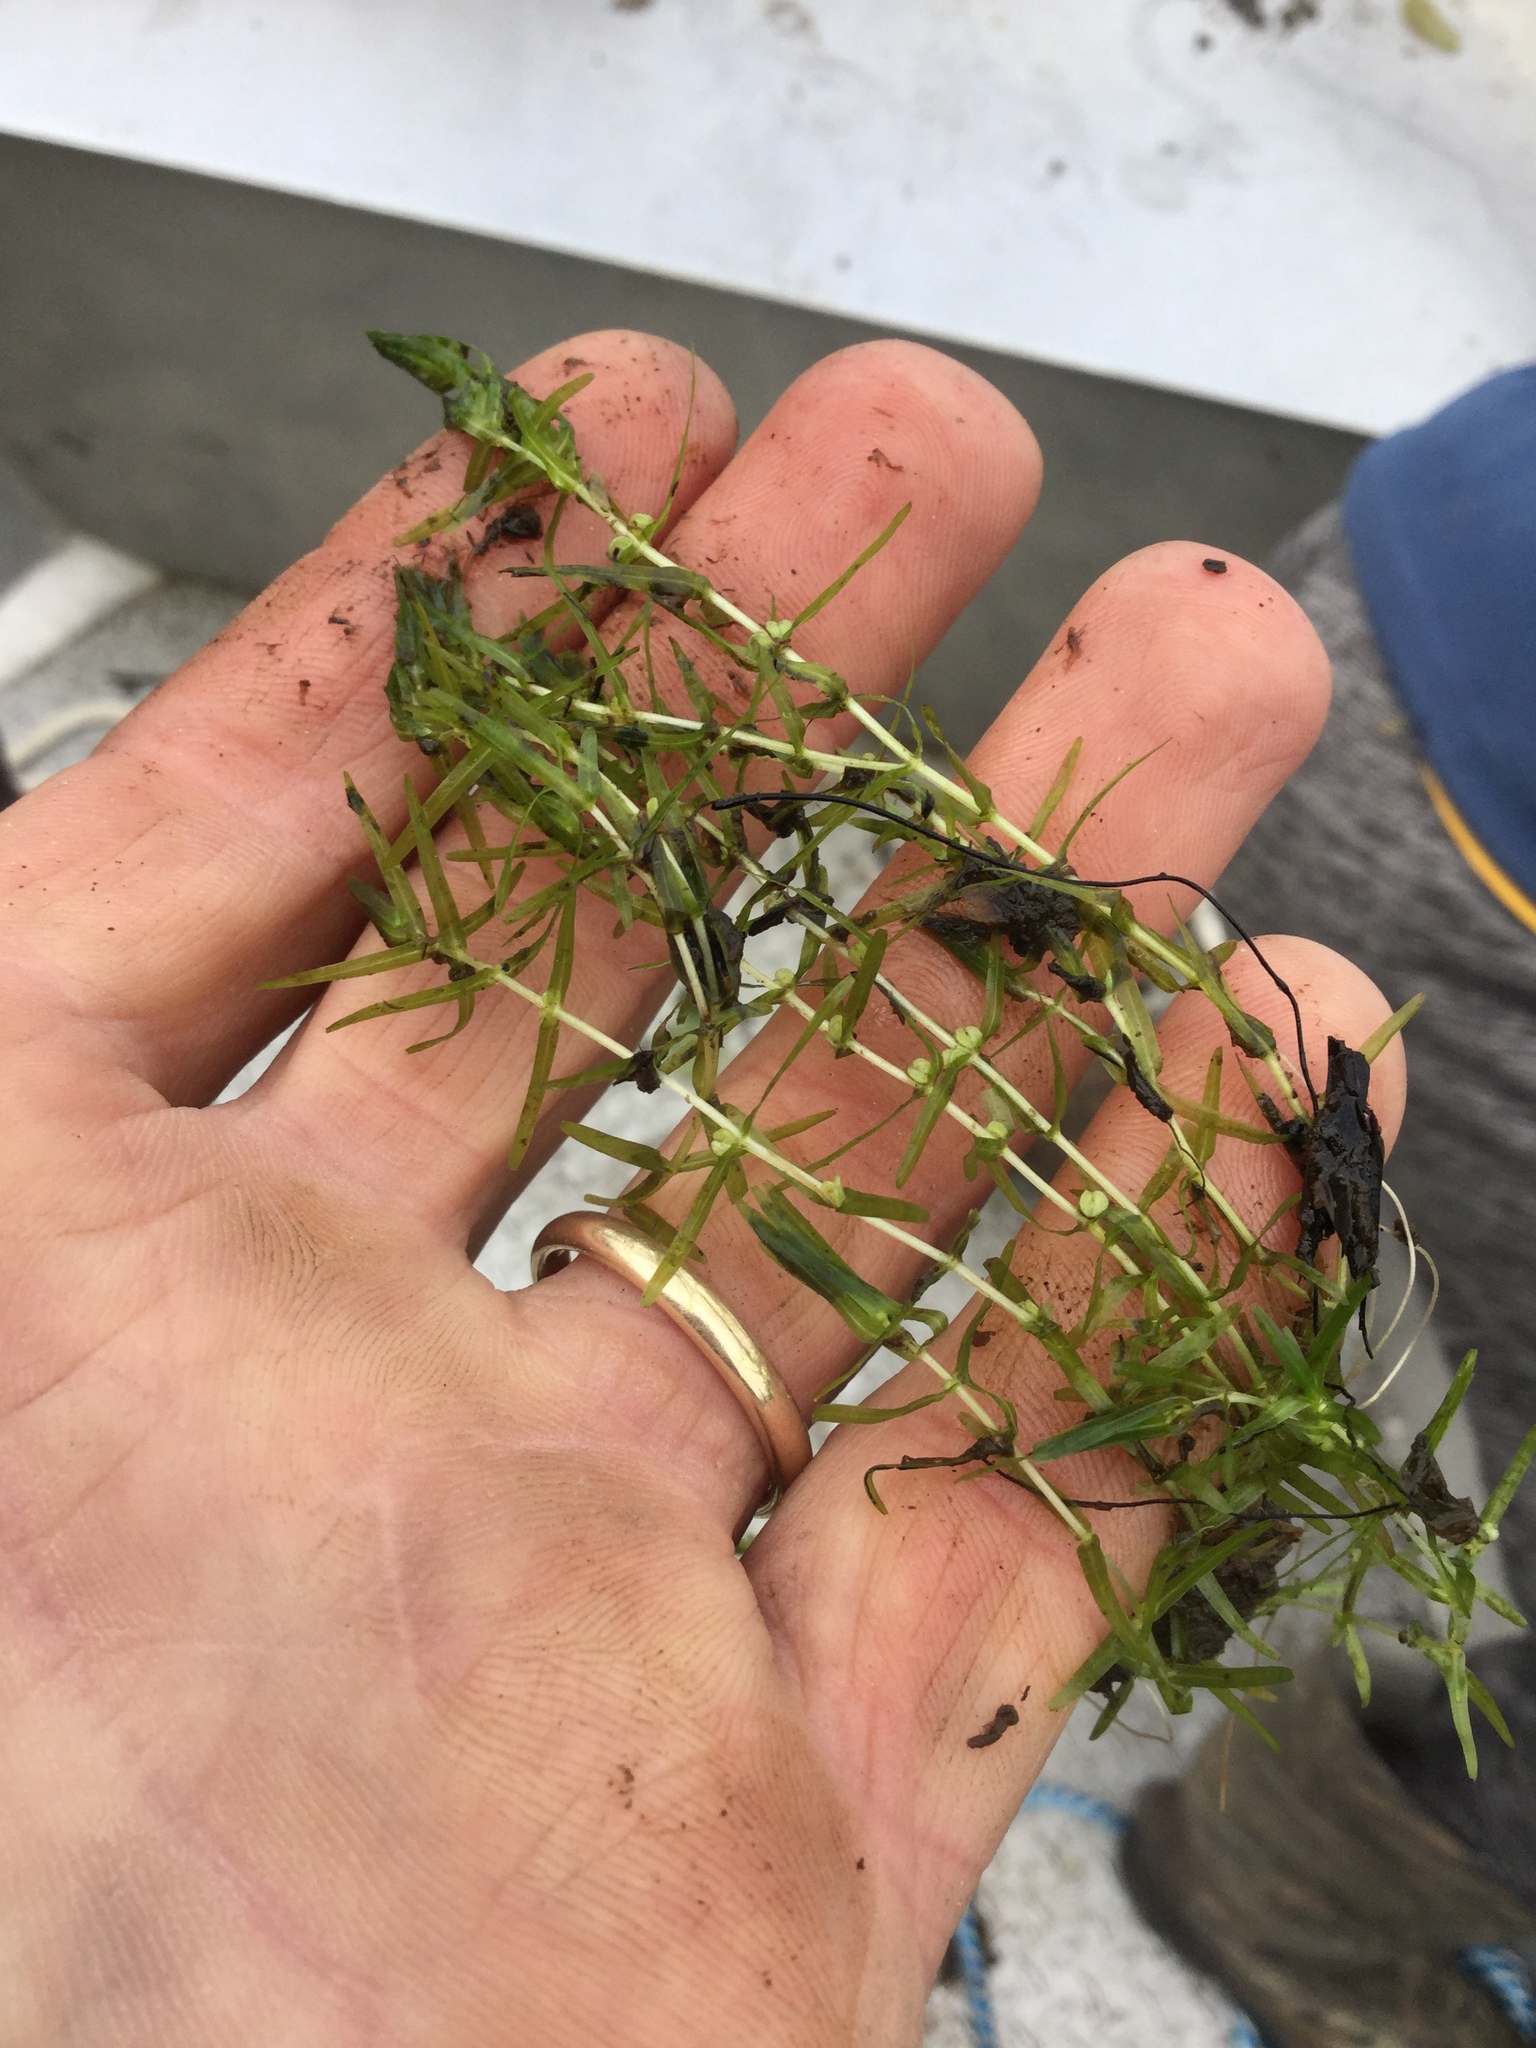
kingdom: Plantae
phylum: Tracheophyta
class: Magnoliopsida
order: Lamiales
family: Plantaginaceae
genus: Callitriche
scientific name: Callitriche hermaphroditica
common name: Autumnal water-starwort
